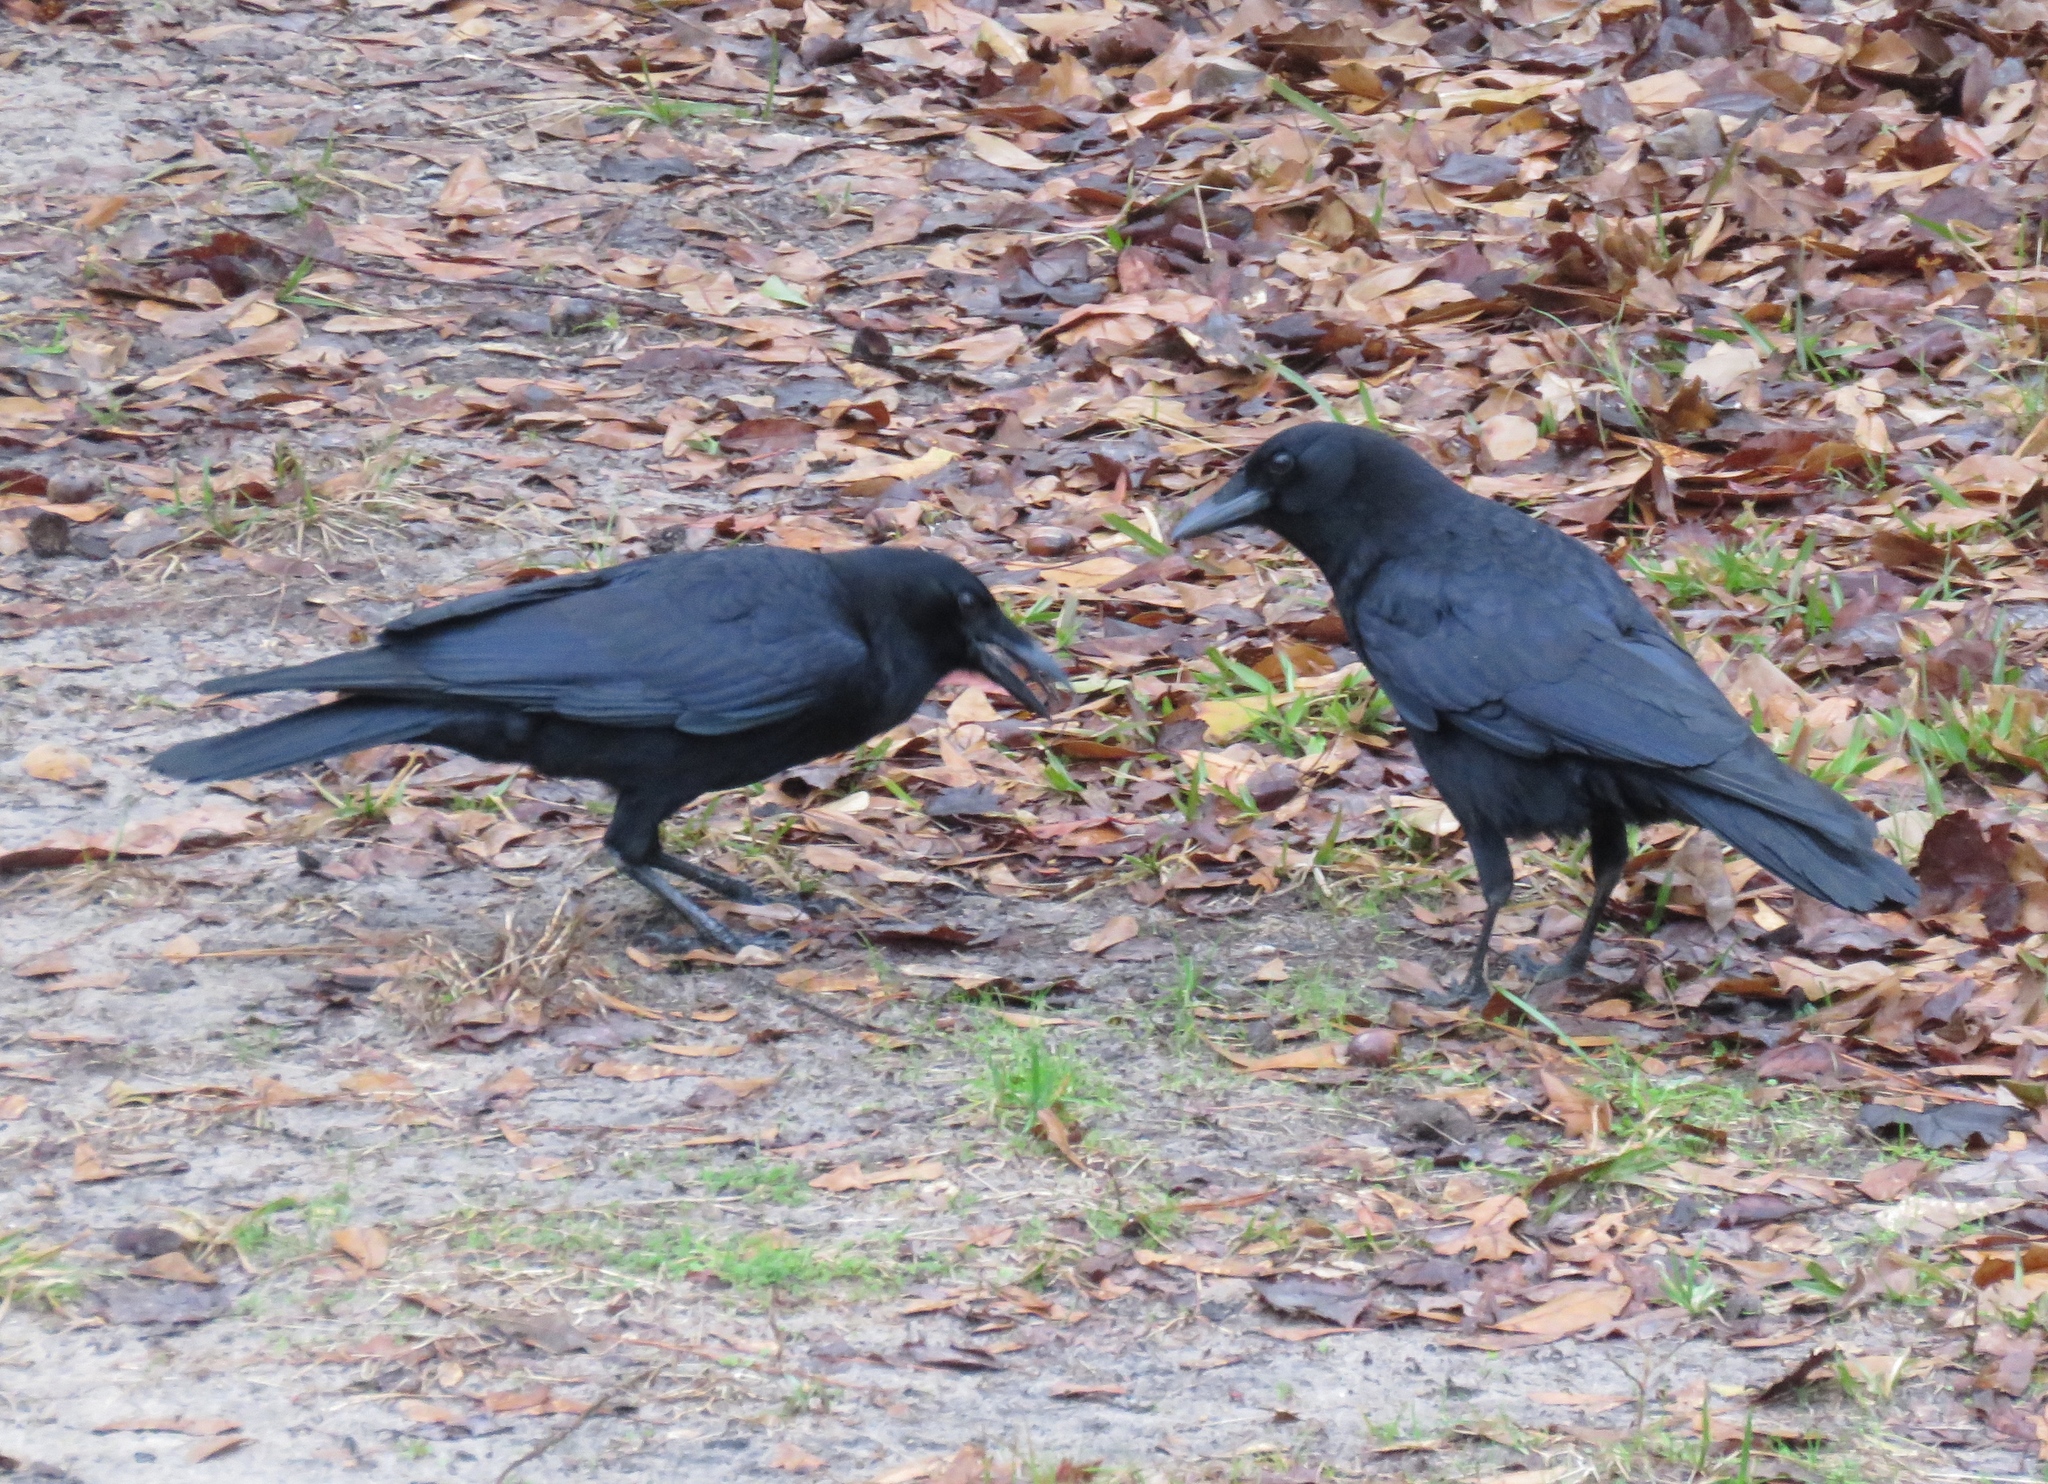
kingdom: Animalia
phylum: Chordata
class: Aves
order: Passeriformes
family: Corvidae
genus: Corvus
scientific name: Corvus brachyrhynchos
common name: American crow
